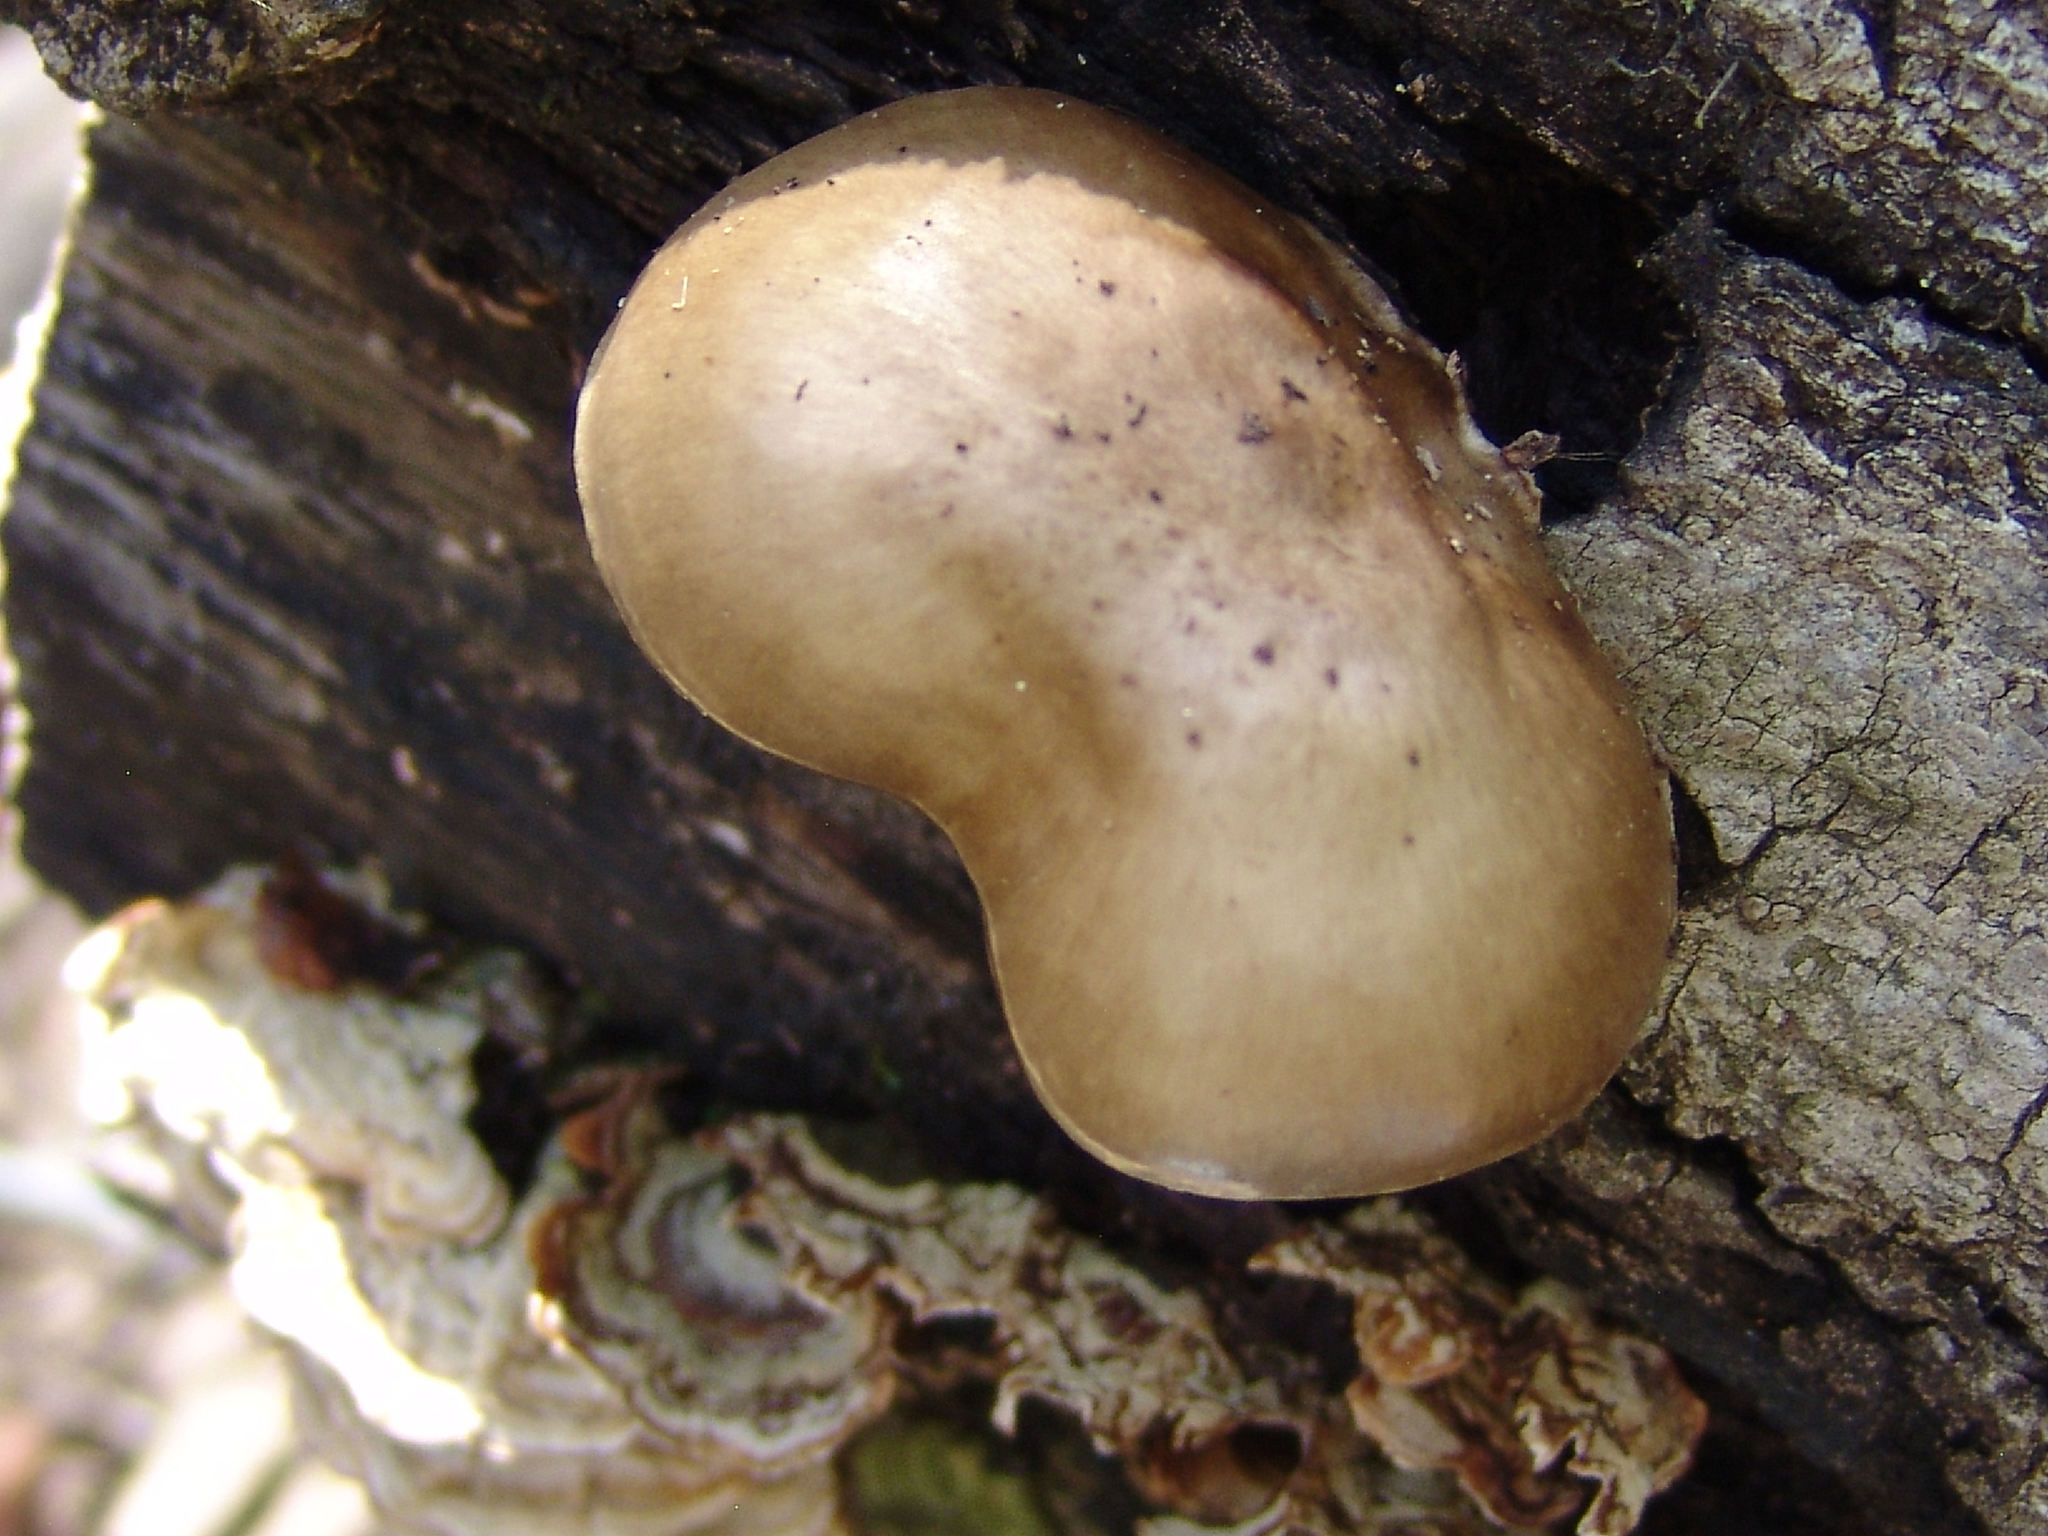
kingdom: Fungi
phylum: Basidiomycota
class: Agaricomycetes
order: Agaricales
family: Pluteaceae
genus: Pluteus
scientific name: Pluteus cervinus
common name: Deer shield
